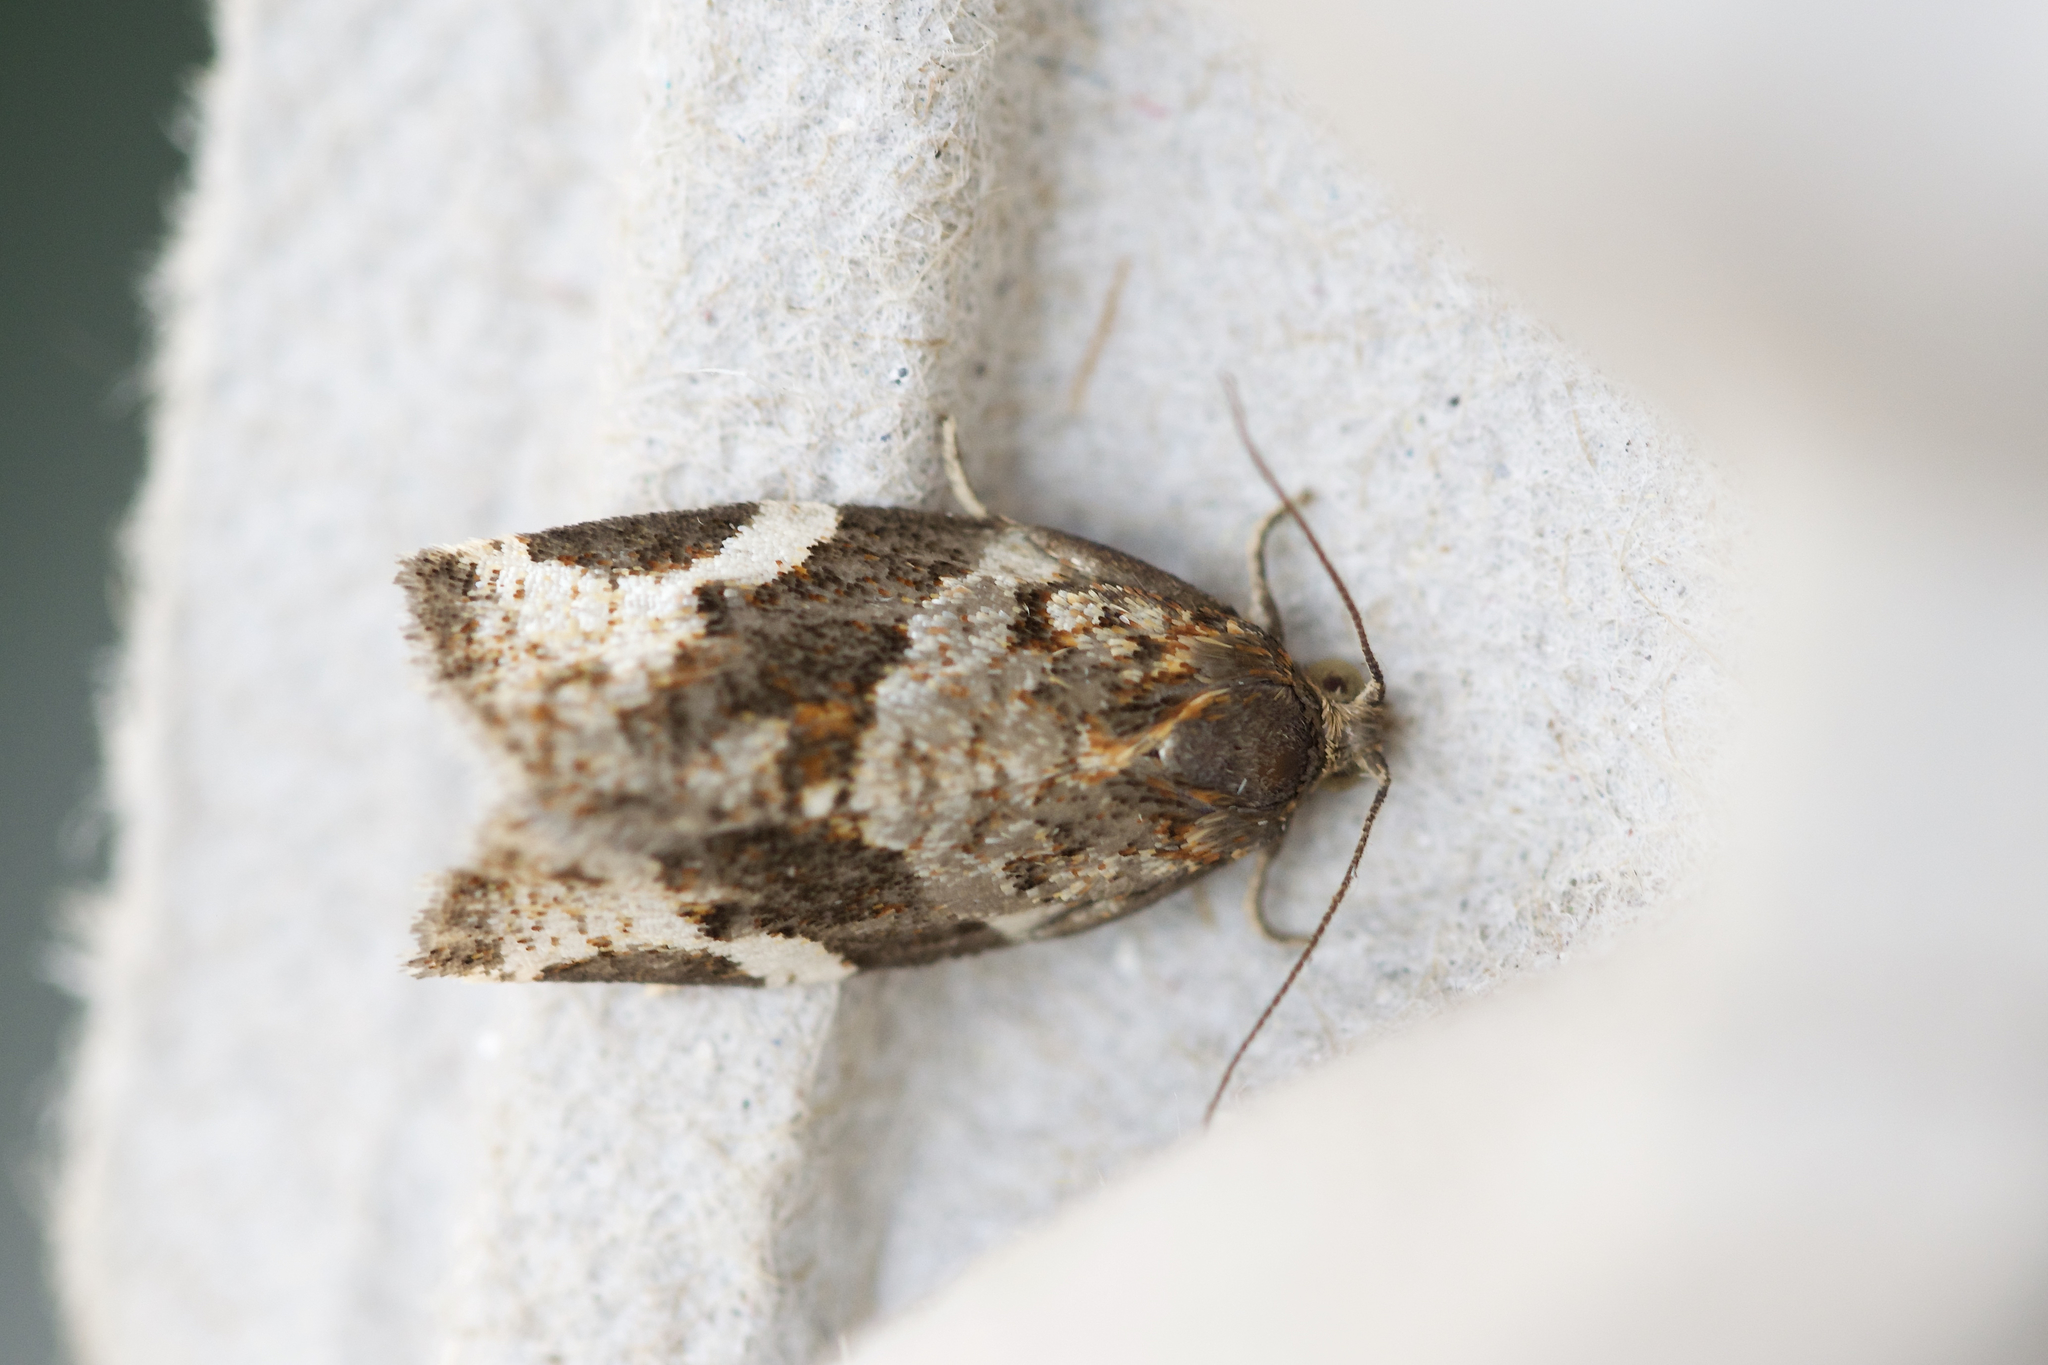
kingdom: Animalia
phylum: Arthropoda
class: Insecta
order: Lepidoptera
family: Tortricidae
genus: Archips
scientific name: Archips mortuana
